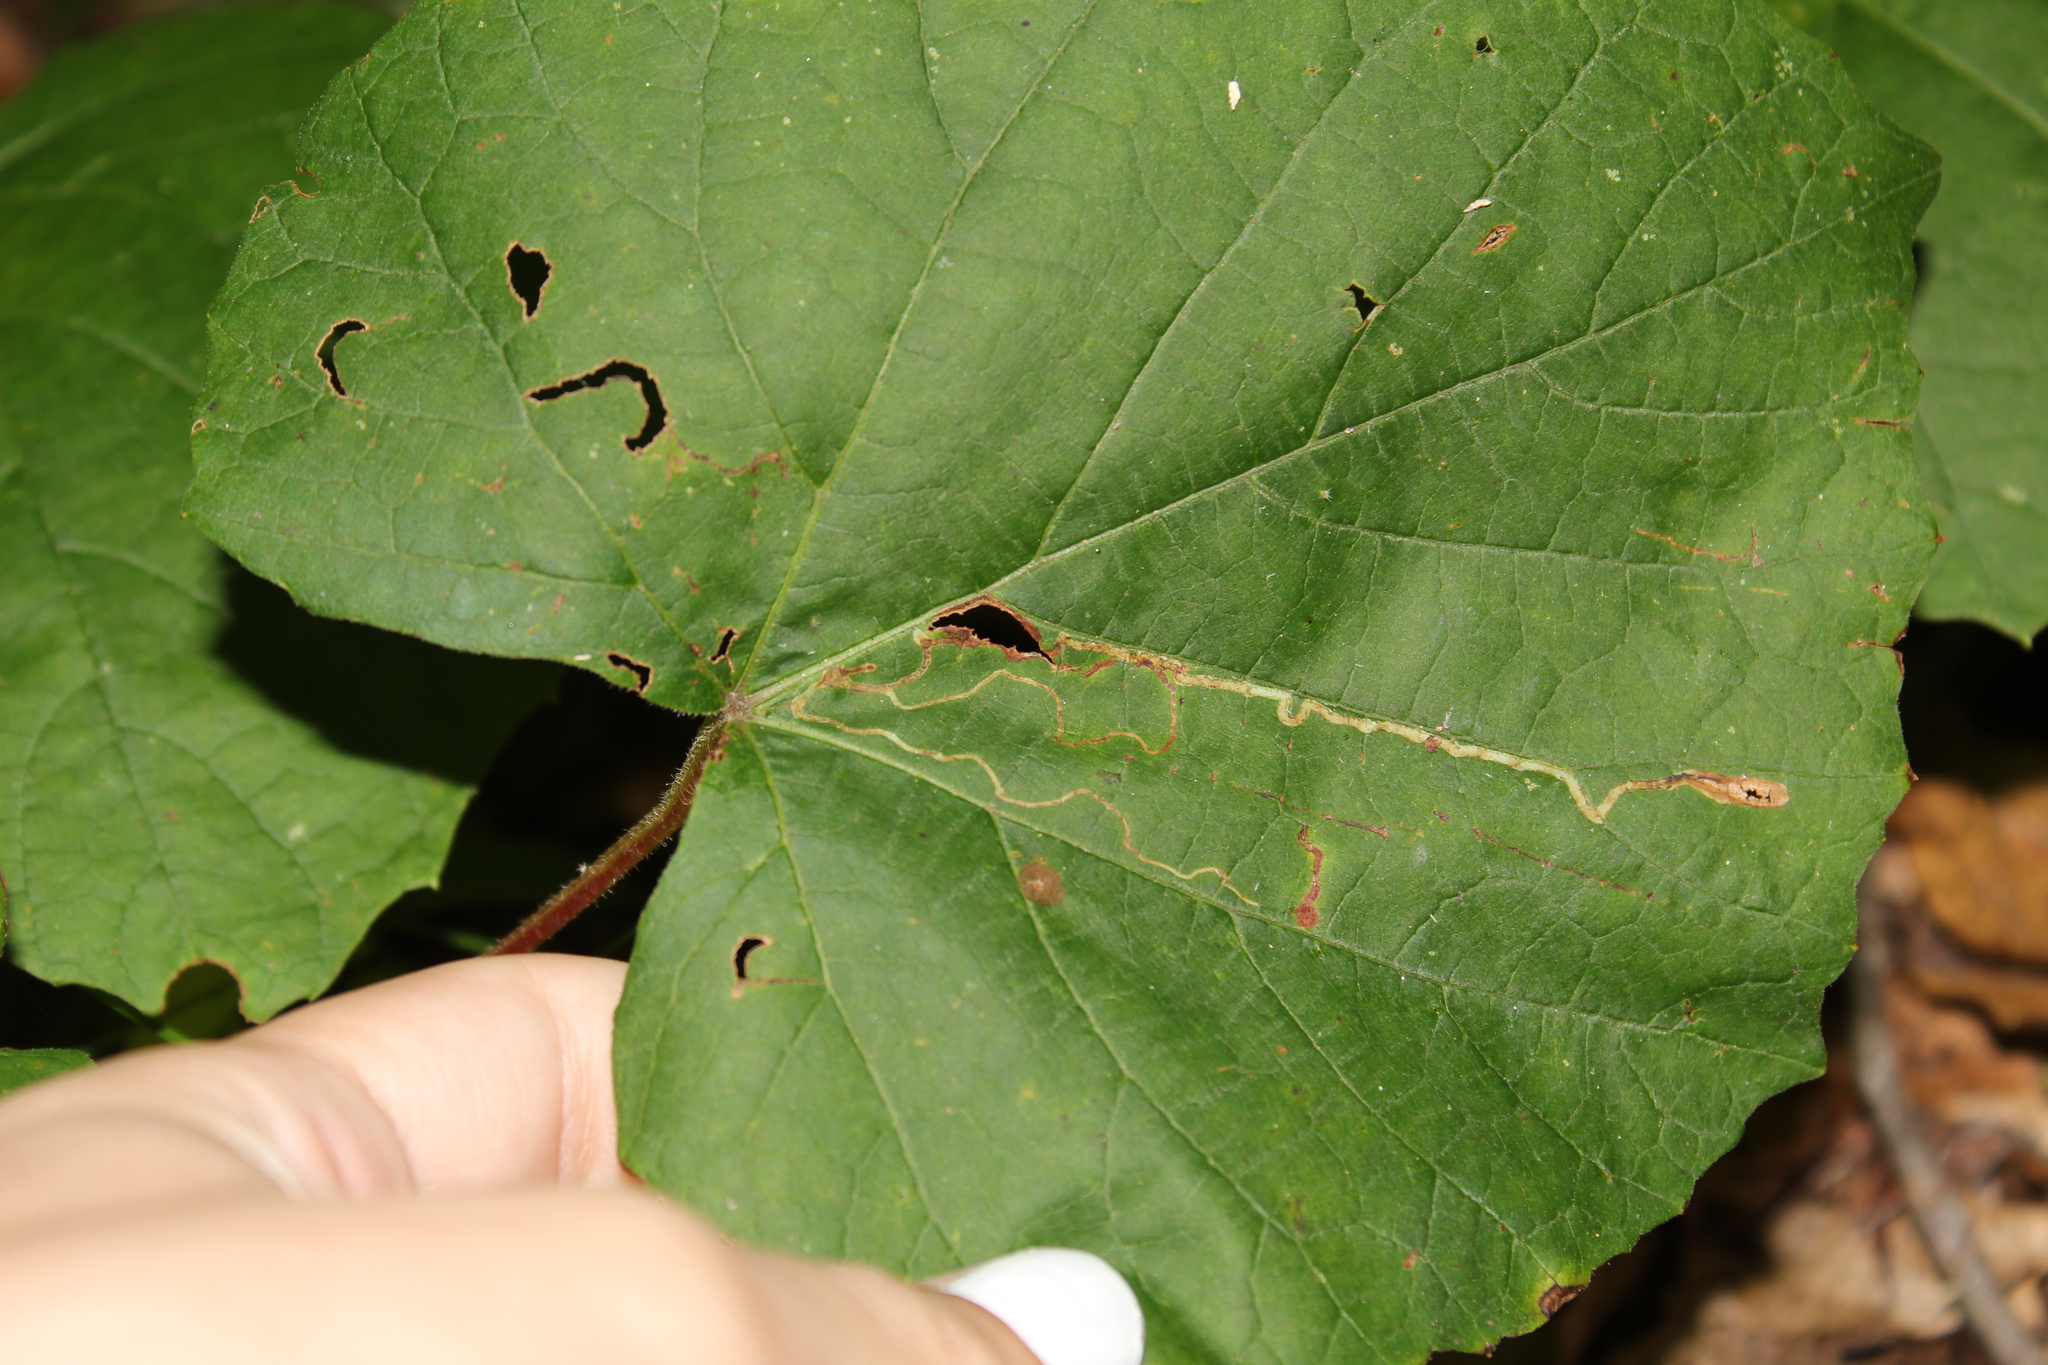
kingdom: Animalia
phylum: Arthropoda
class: Insecta
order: Lepidoptera
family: Gracillariidae
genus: Phyllocnistis
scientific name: Phyllocnistis vitifoliella
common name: Grape leaf-miner moth
